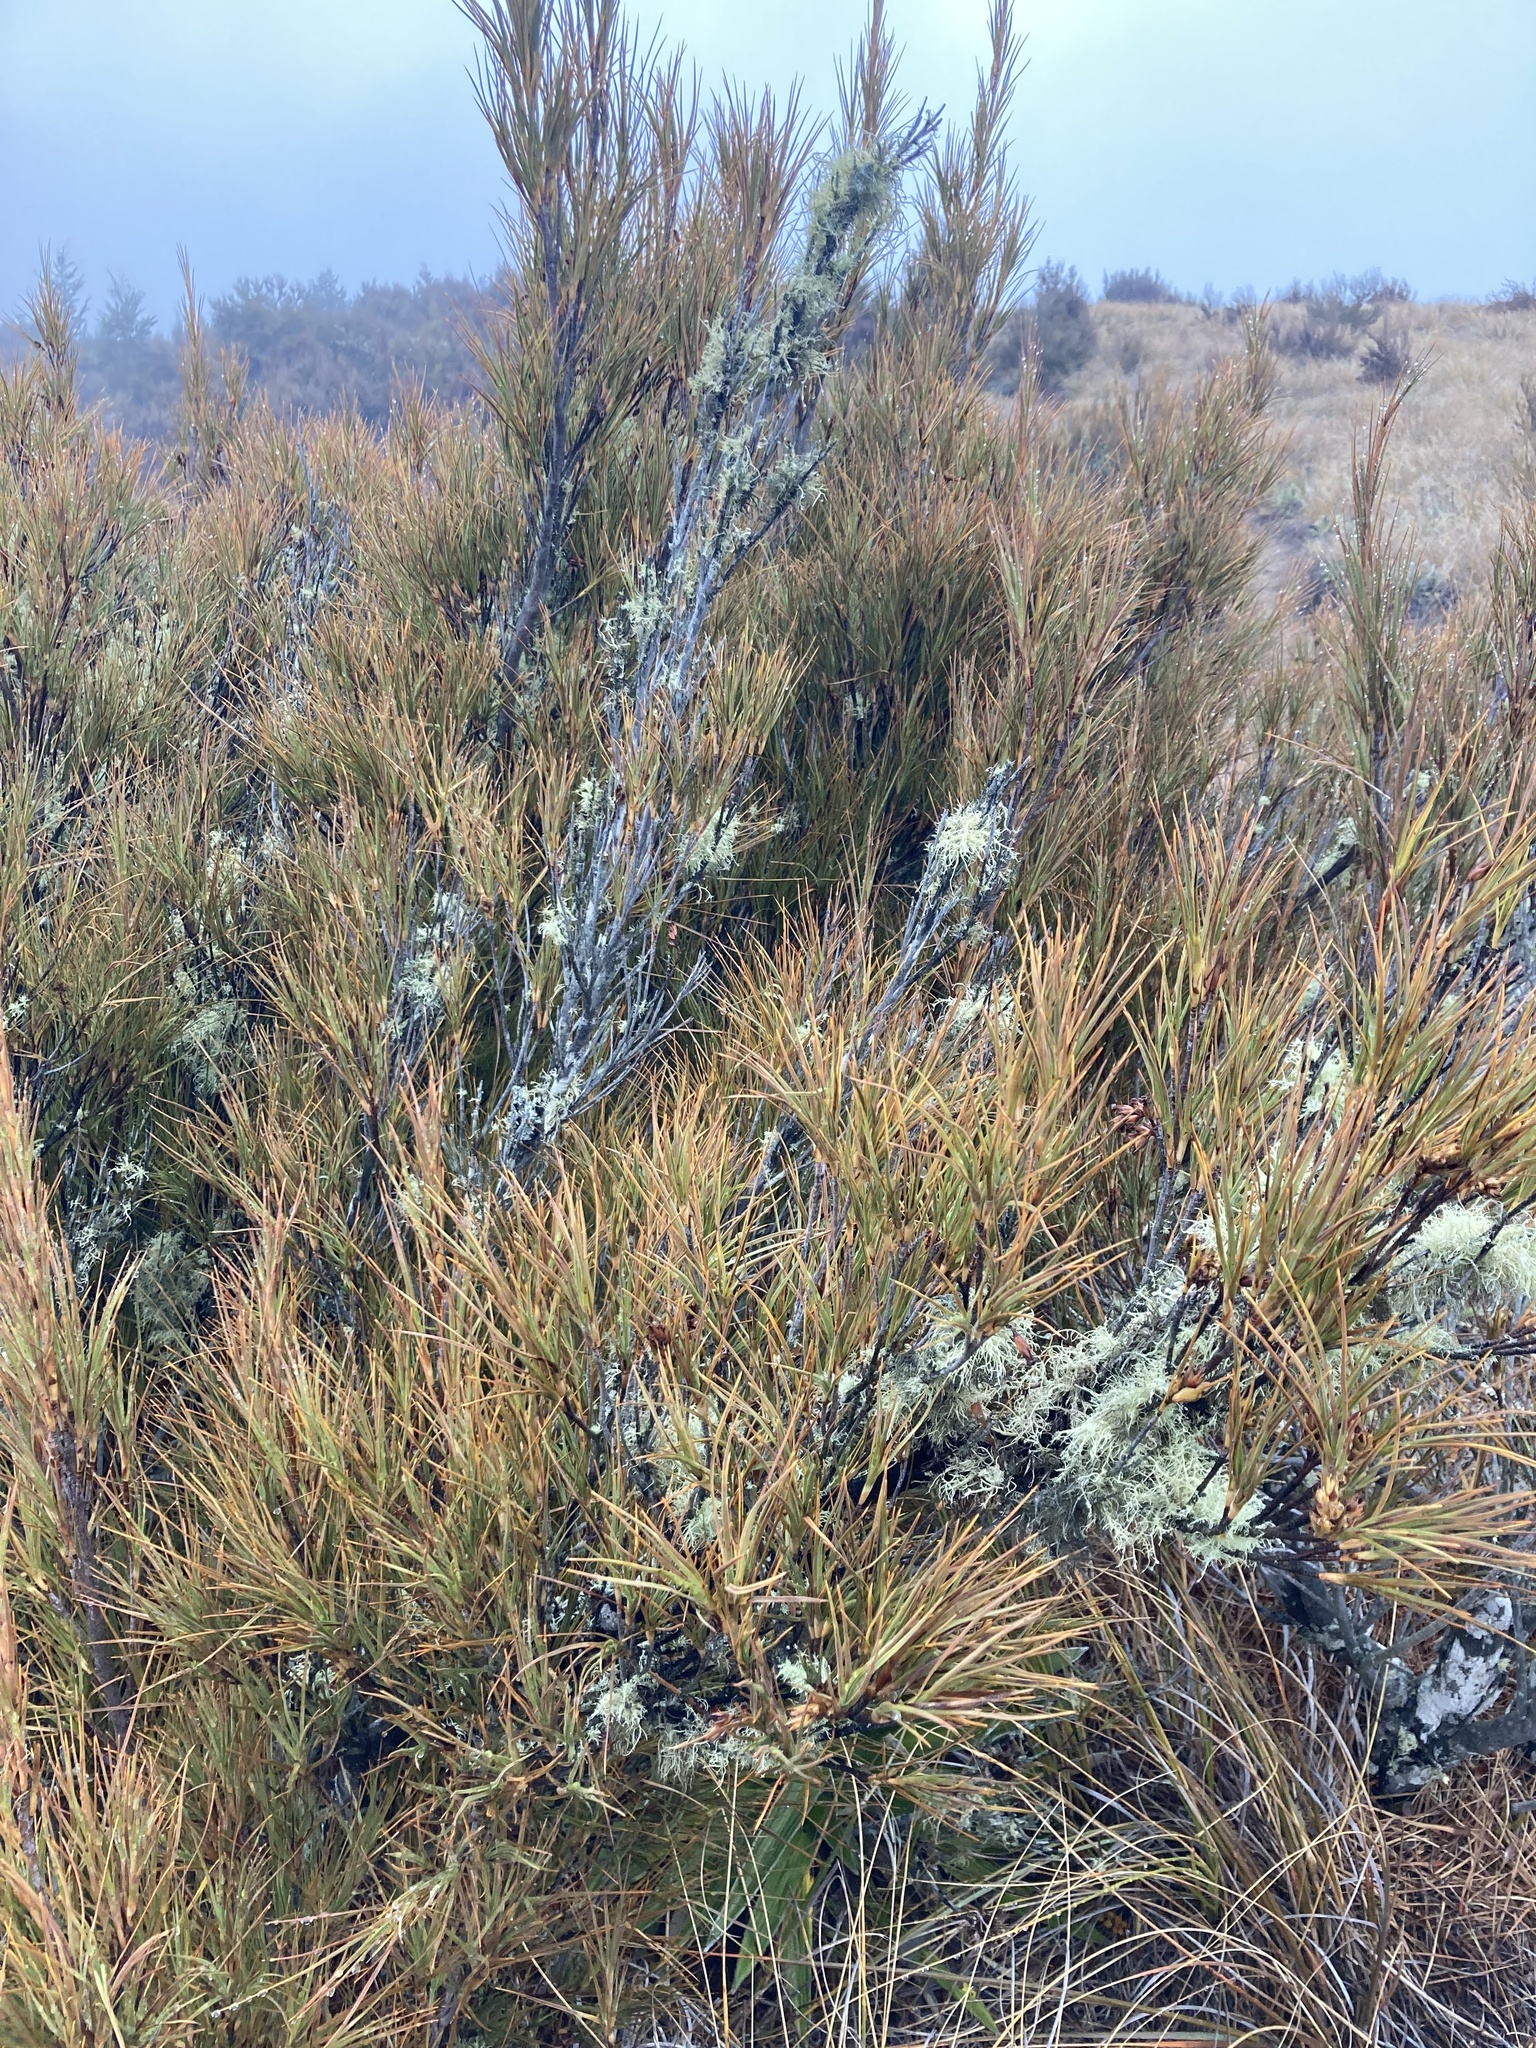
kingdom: Plantae
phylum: Tracheophyta
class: Magnoliopsida
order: Ericales
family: Ericaceae
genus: Dracophyllum
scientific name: Dracophyllum longifolium
